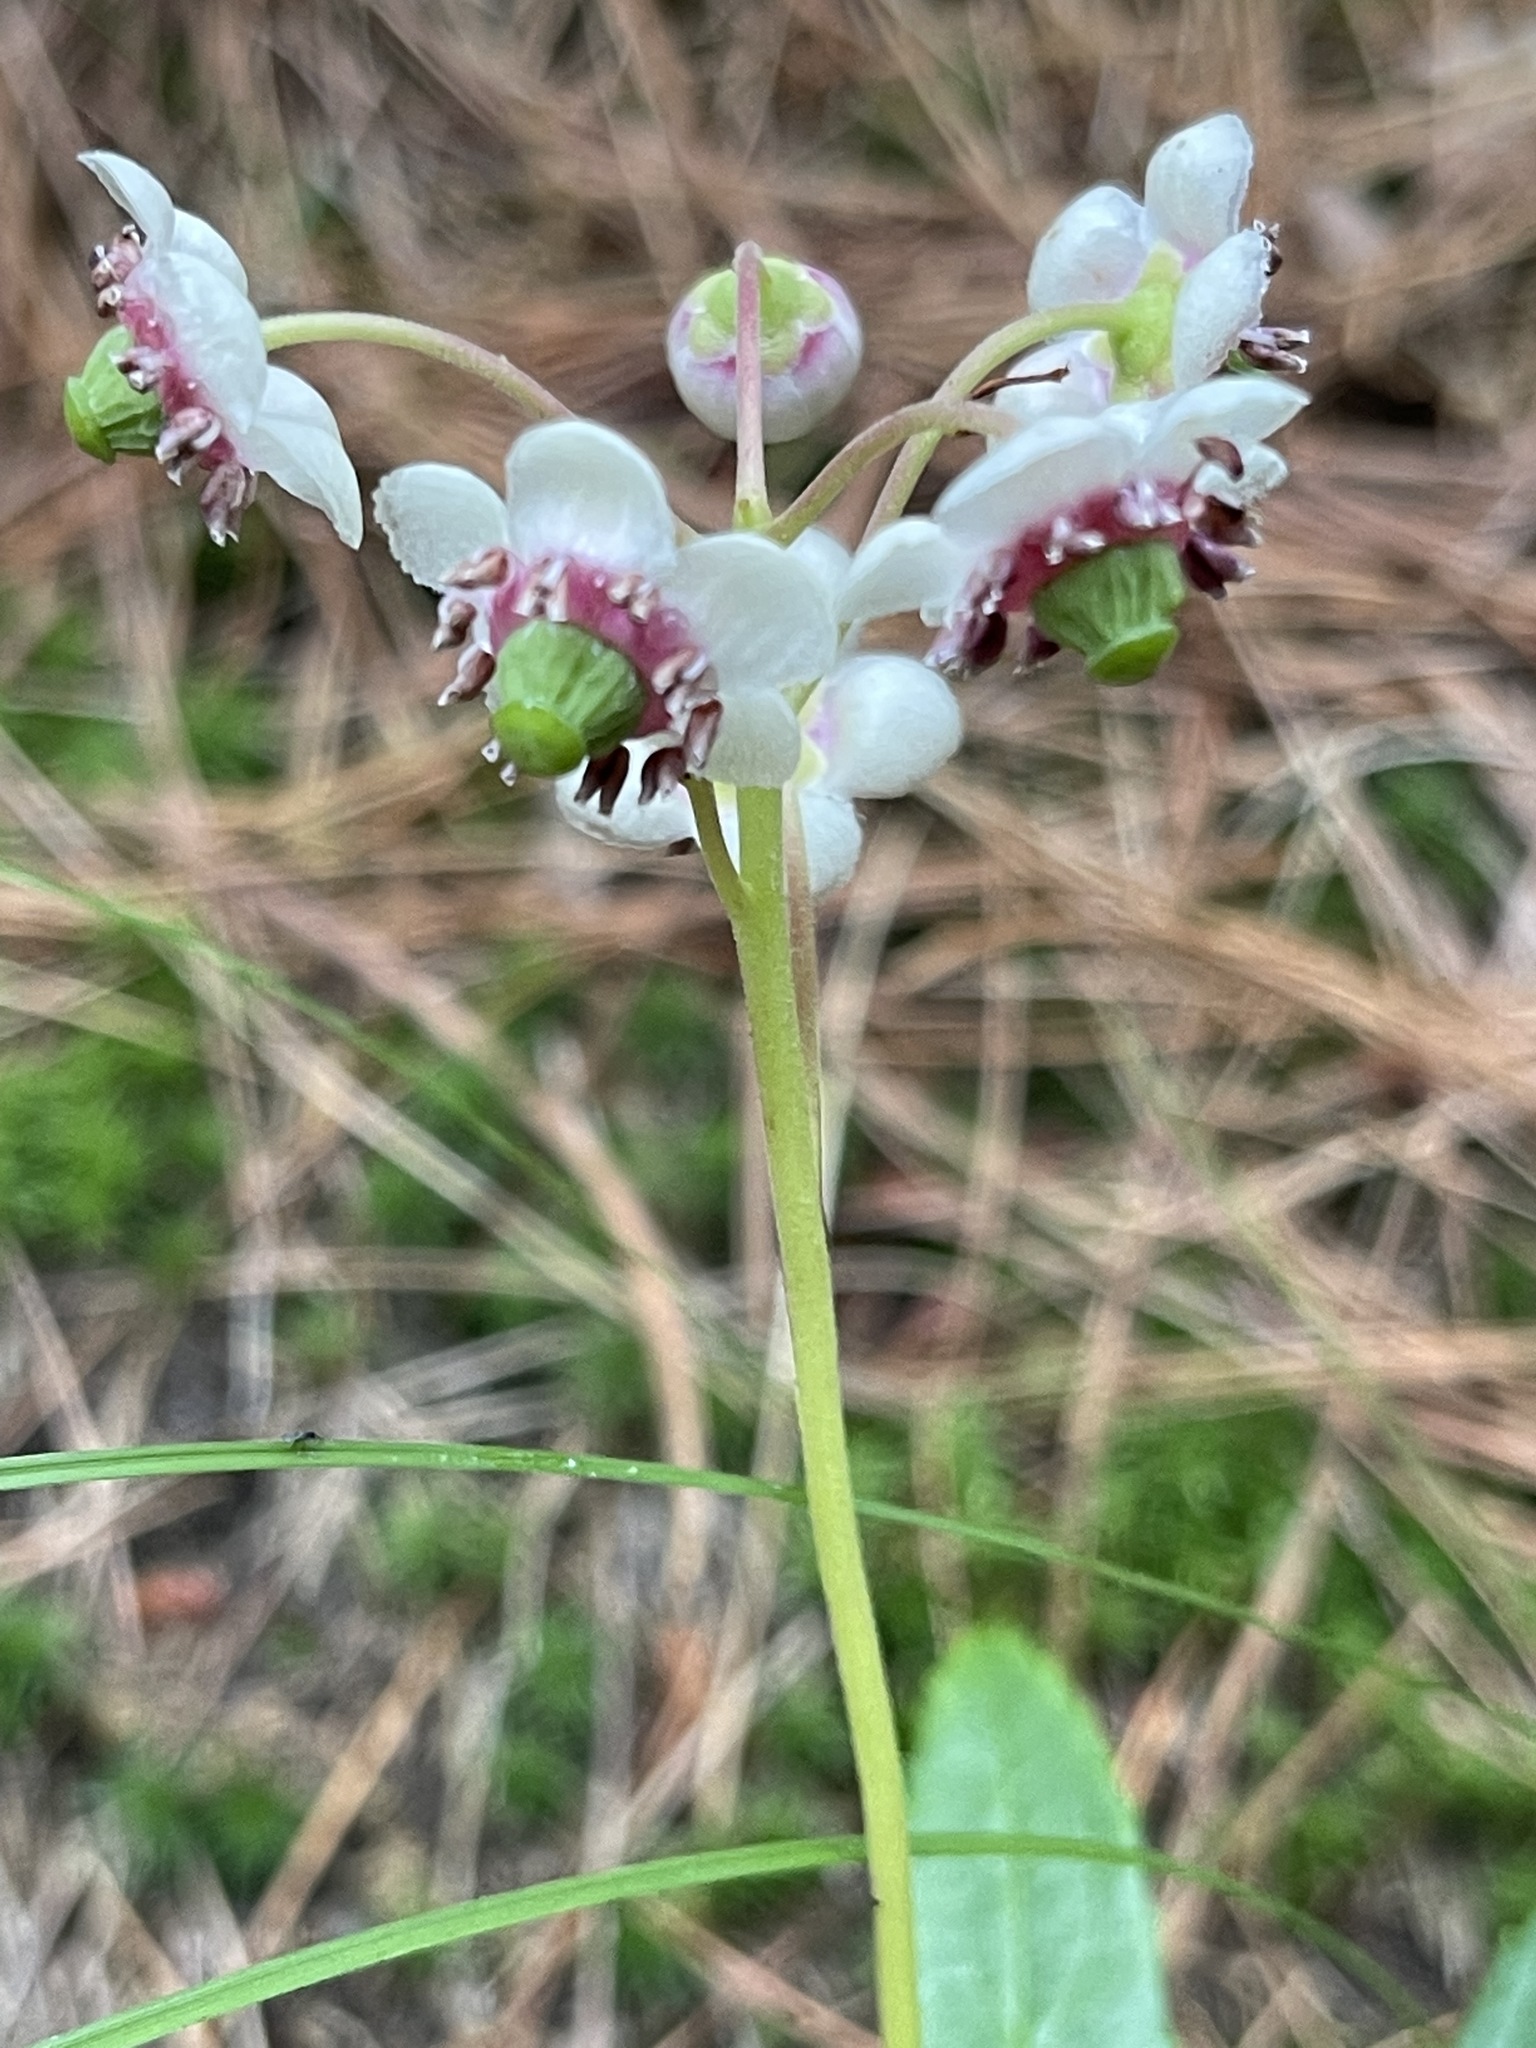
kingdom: Plantae
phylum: Tracheophyta
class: Magnoliopsida
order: Ericales
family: Ericaceae
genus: Chimaphila
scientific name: Chimaphila umbellata
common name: Pipsissewa
